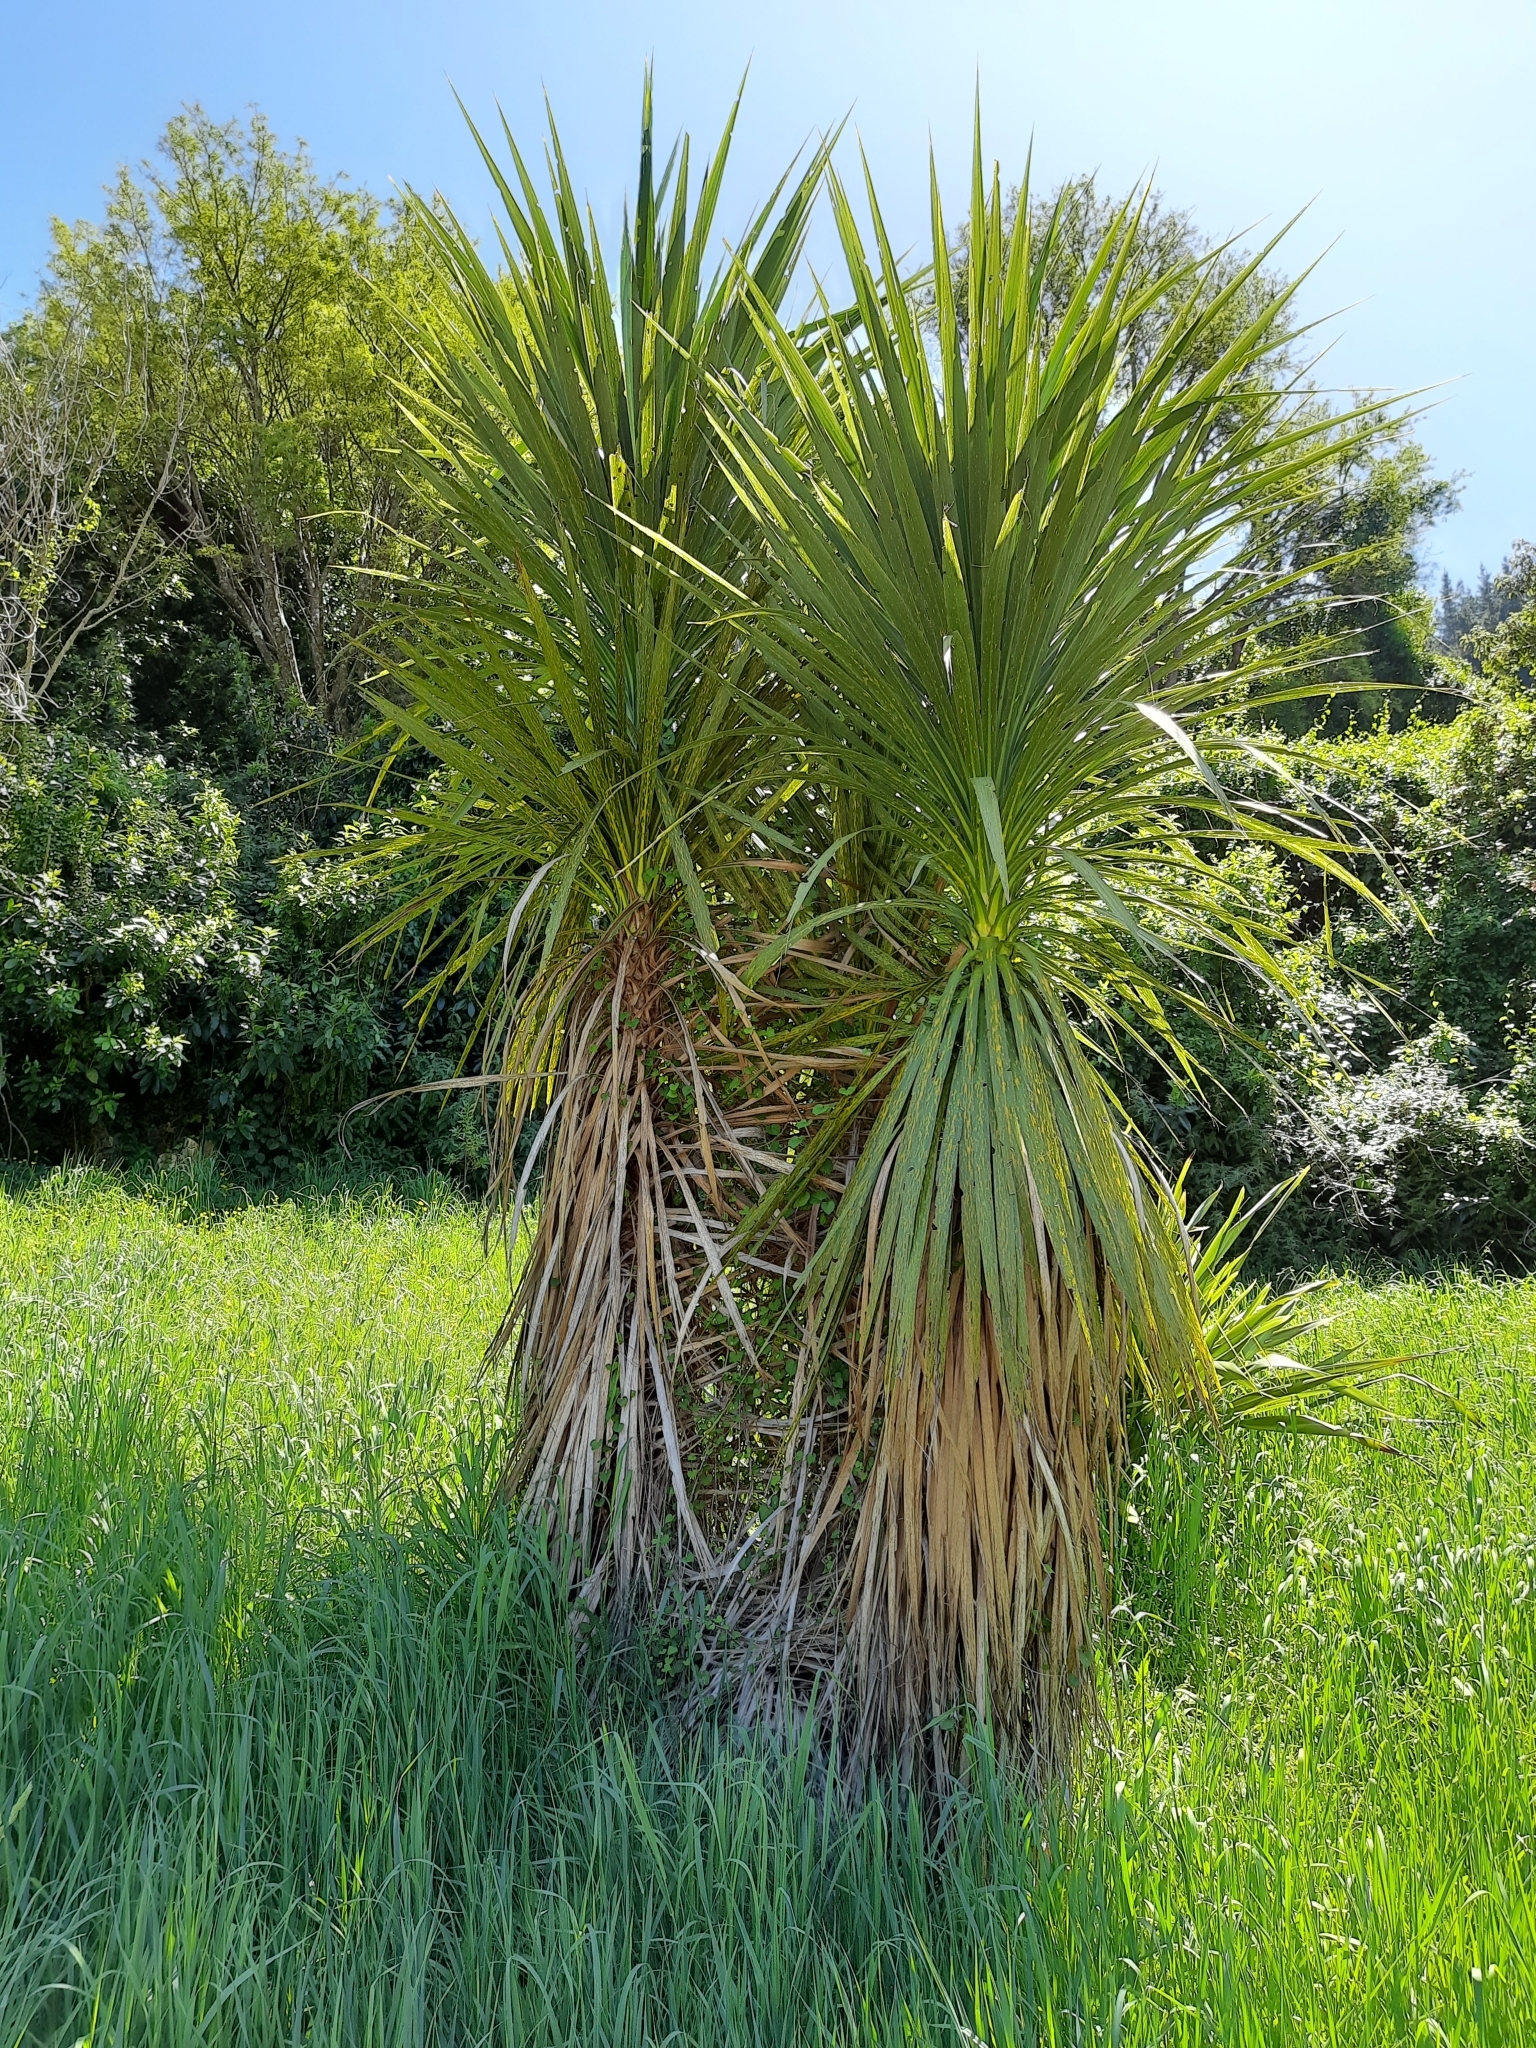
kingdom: Plantae
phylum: Tracheophyta
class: Liliopsida
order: Asparagales
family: Asparagaceae
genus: Cordyline
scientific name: Cordyline australis
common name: Cabbage-palm
